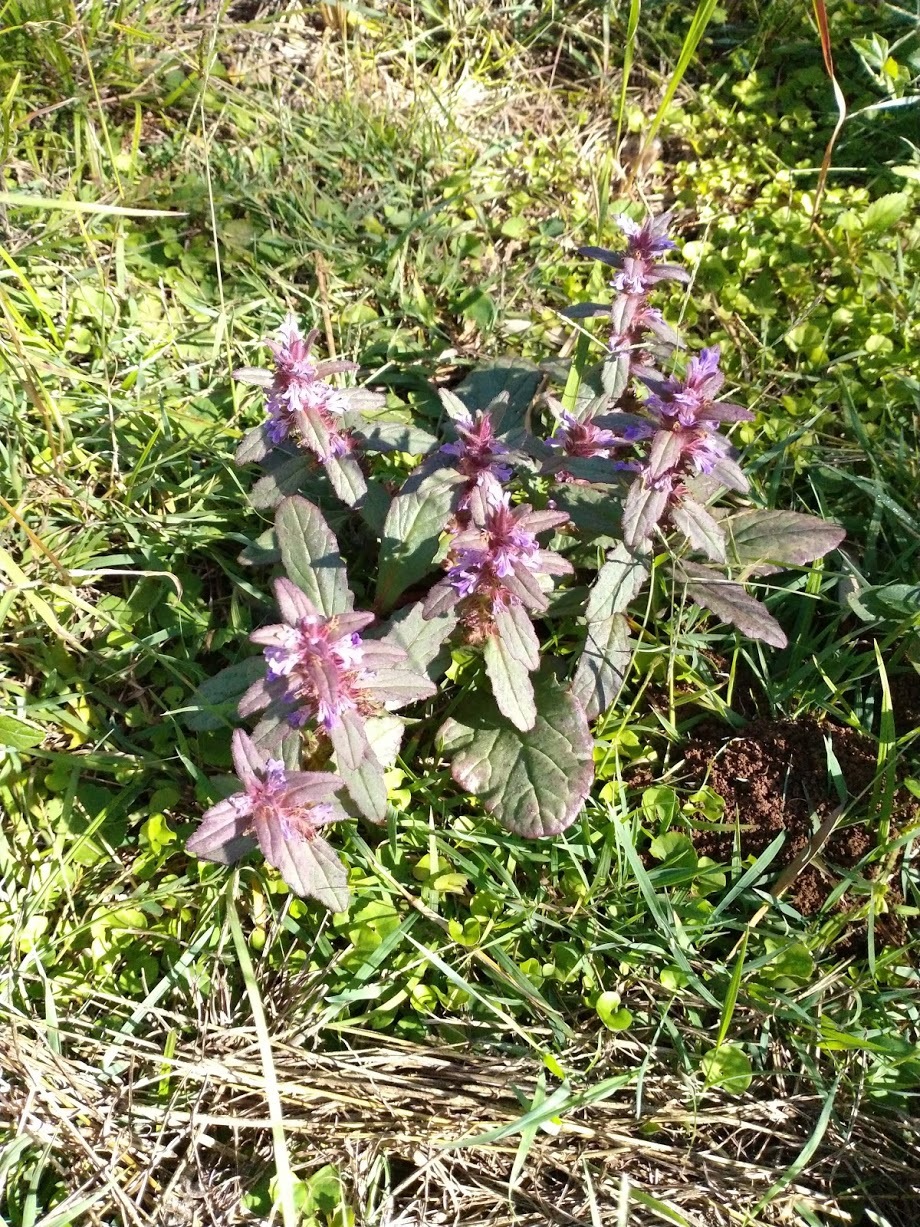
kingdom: Plantae
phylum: Tracheophyta
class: Magnoliopsida
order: Lamiales
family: Lamiaceae
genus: Ajuga
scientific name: Ajuga australis
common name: Australian bugle
